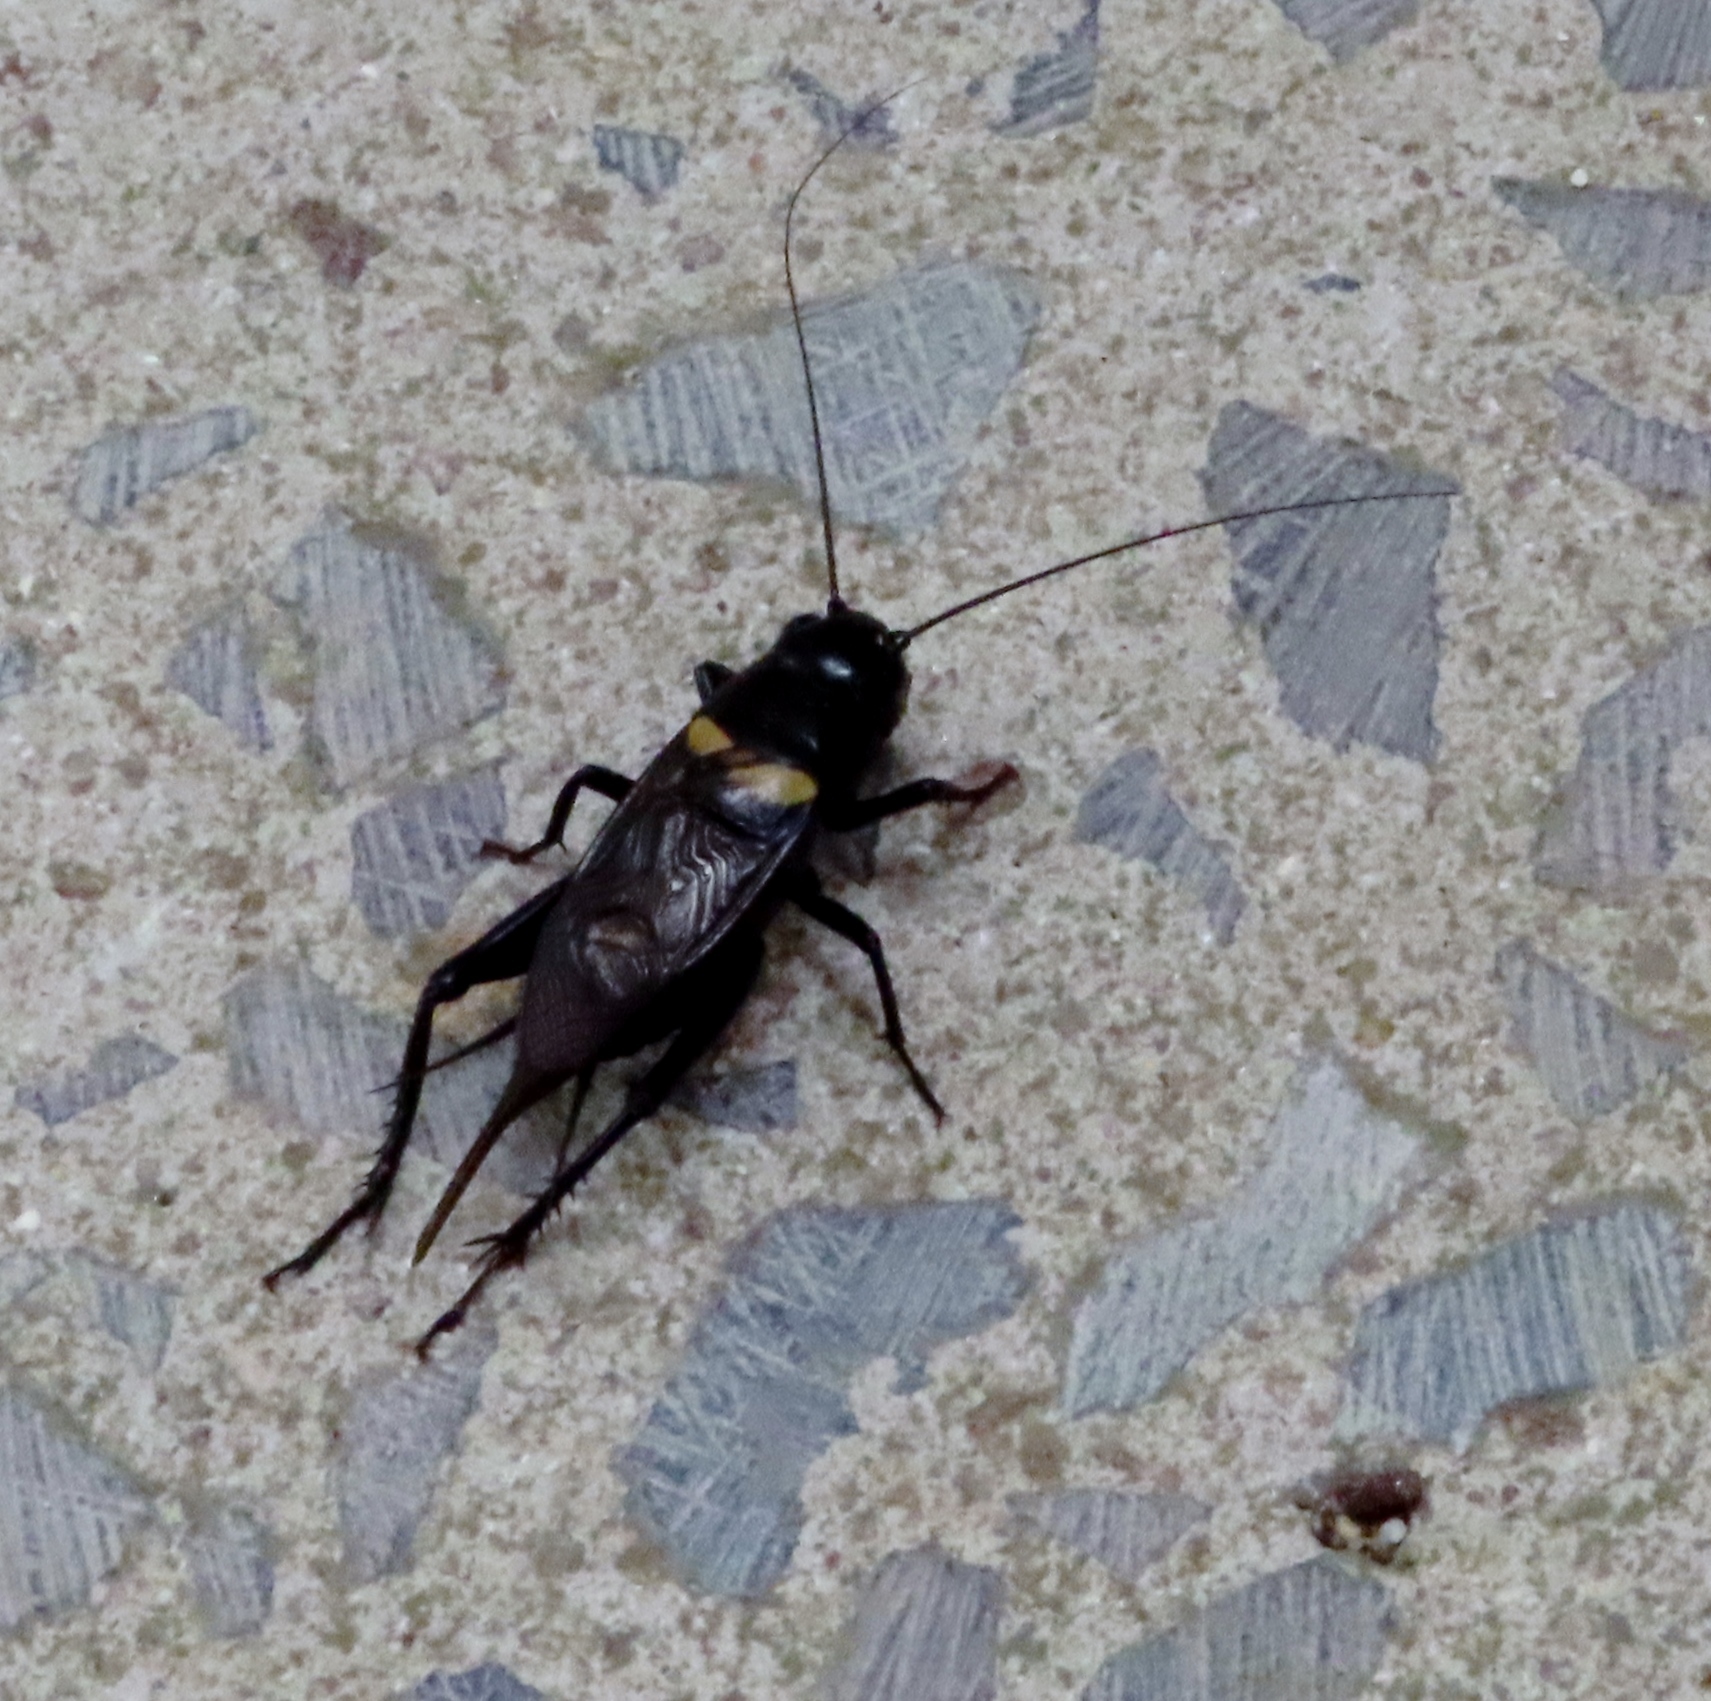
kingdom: Animalia
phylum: Arthropoda
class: Insecta
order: Orthoptera
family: Gryllidae
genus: Gryllus
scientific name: Gryllus bimaculatus
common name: Two-spotted cricket
